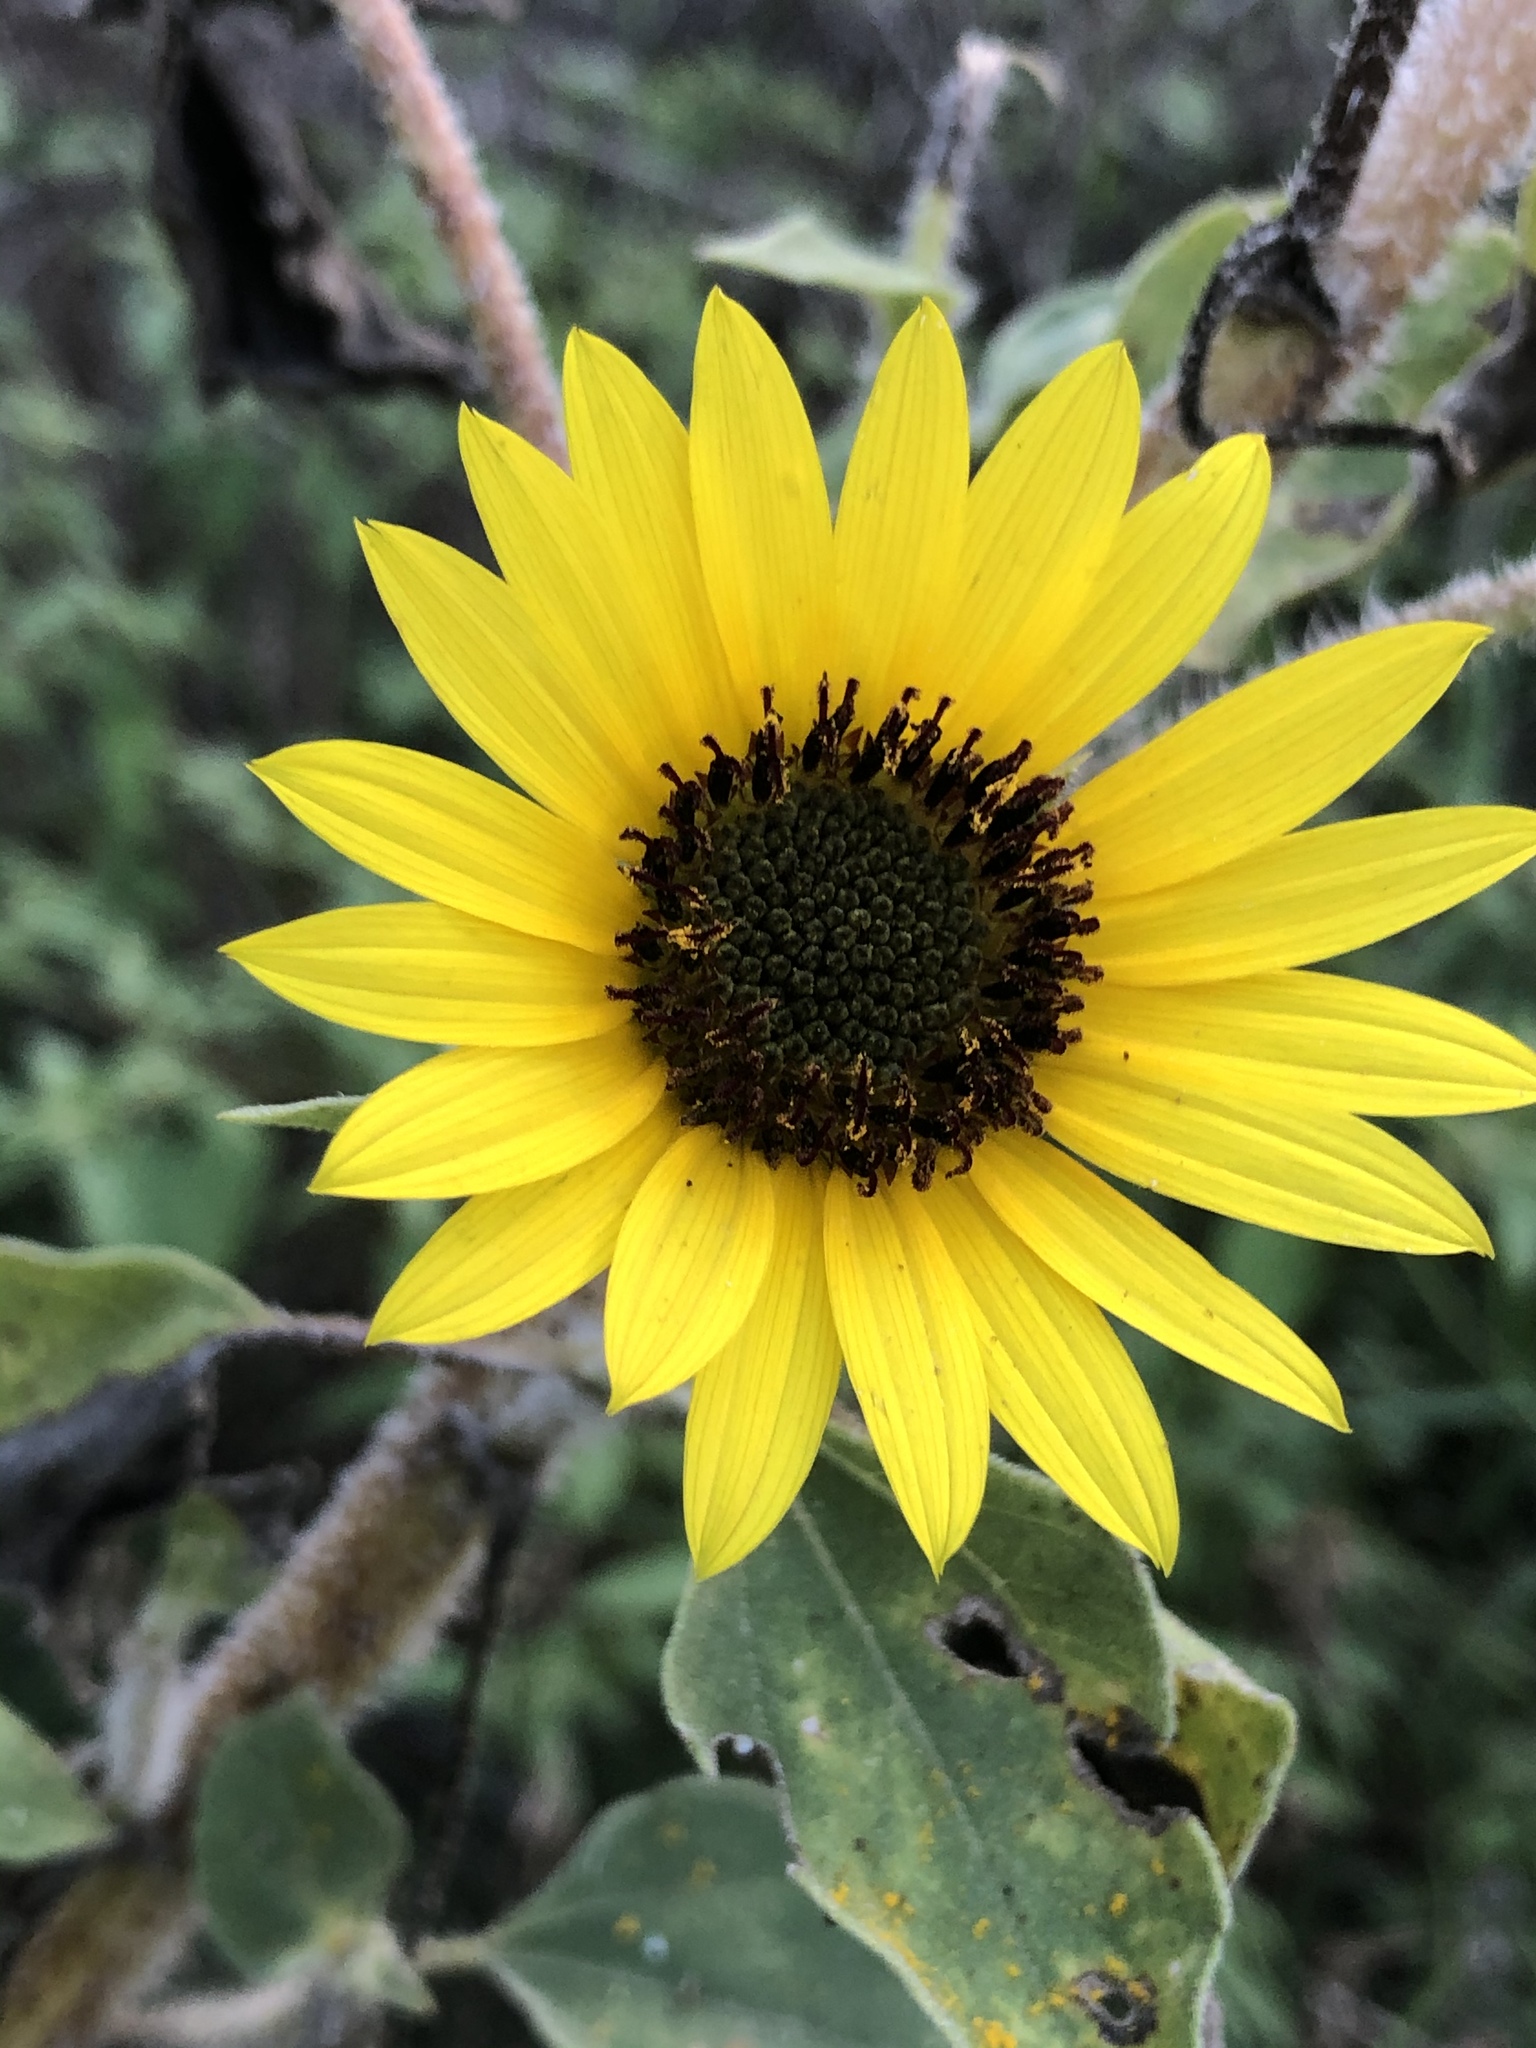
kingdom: Plantae
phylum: Tracheophyta
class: Magnoliopsida
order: Asterales
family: Asteraceae
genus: Helianthus
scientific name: Helianthus annuus
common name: Sunflower
